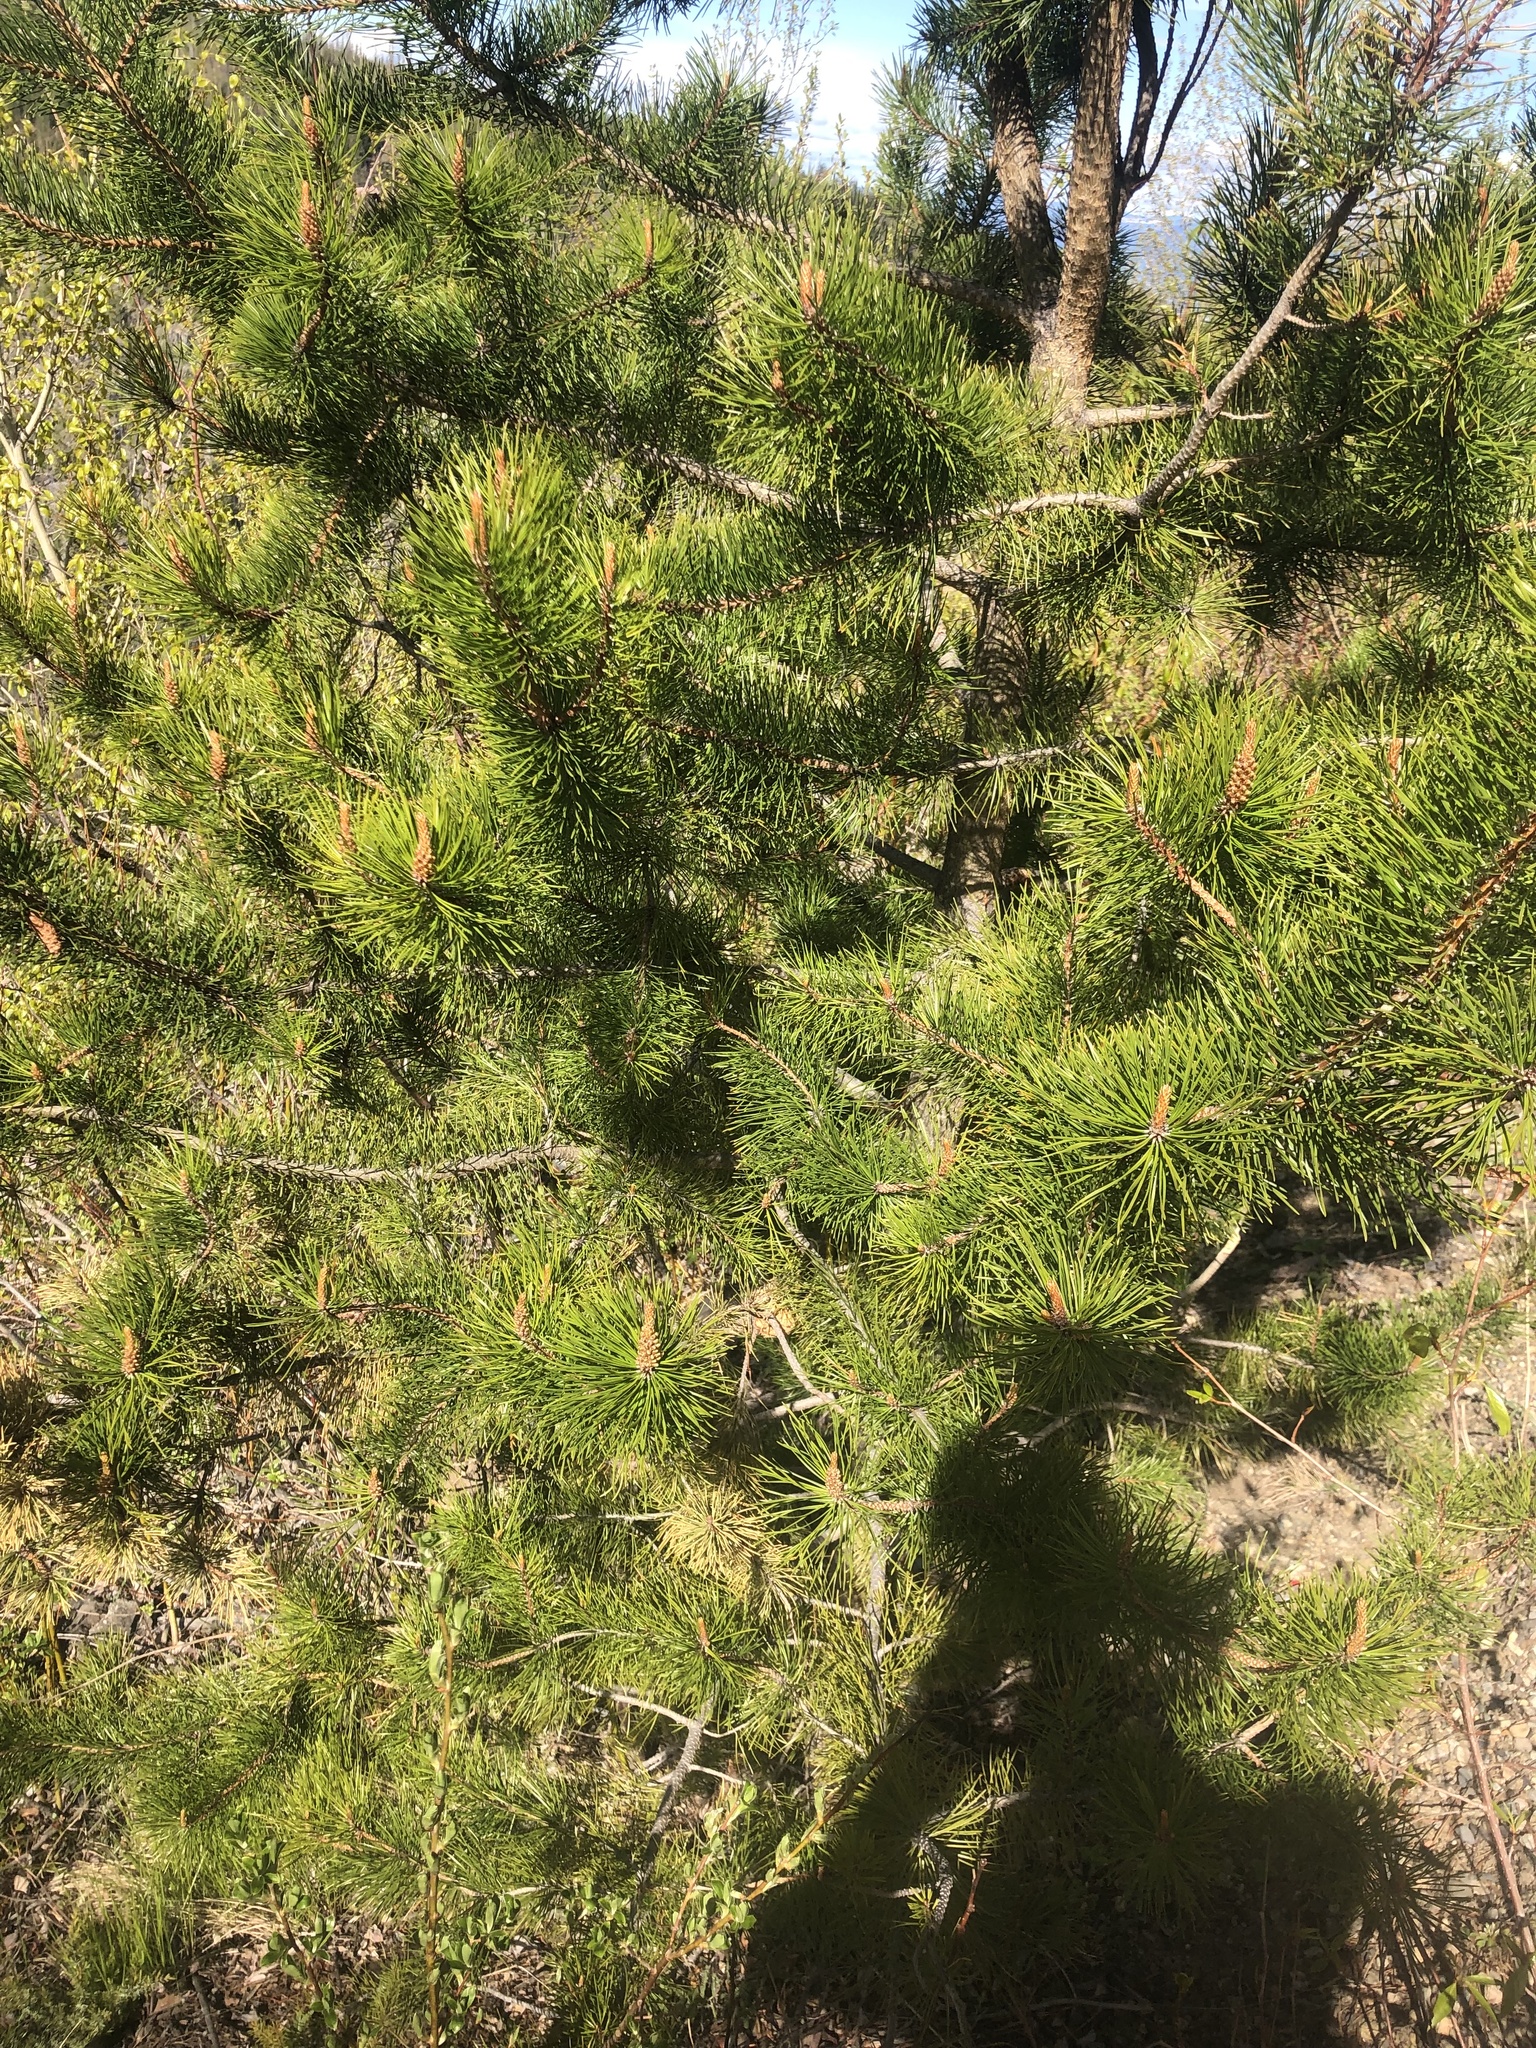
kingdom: Plantae
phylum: Tracheophyta
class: Pinopsida
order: Pinales
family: Pinaceae
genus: Pinus
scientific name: Pinus contorta
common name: Lodgepole pine
